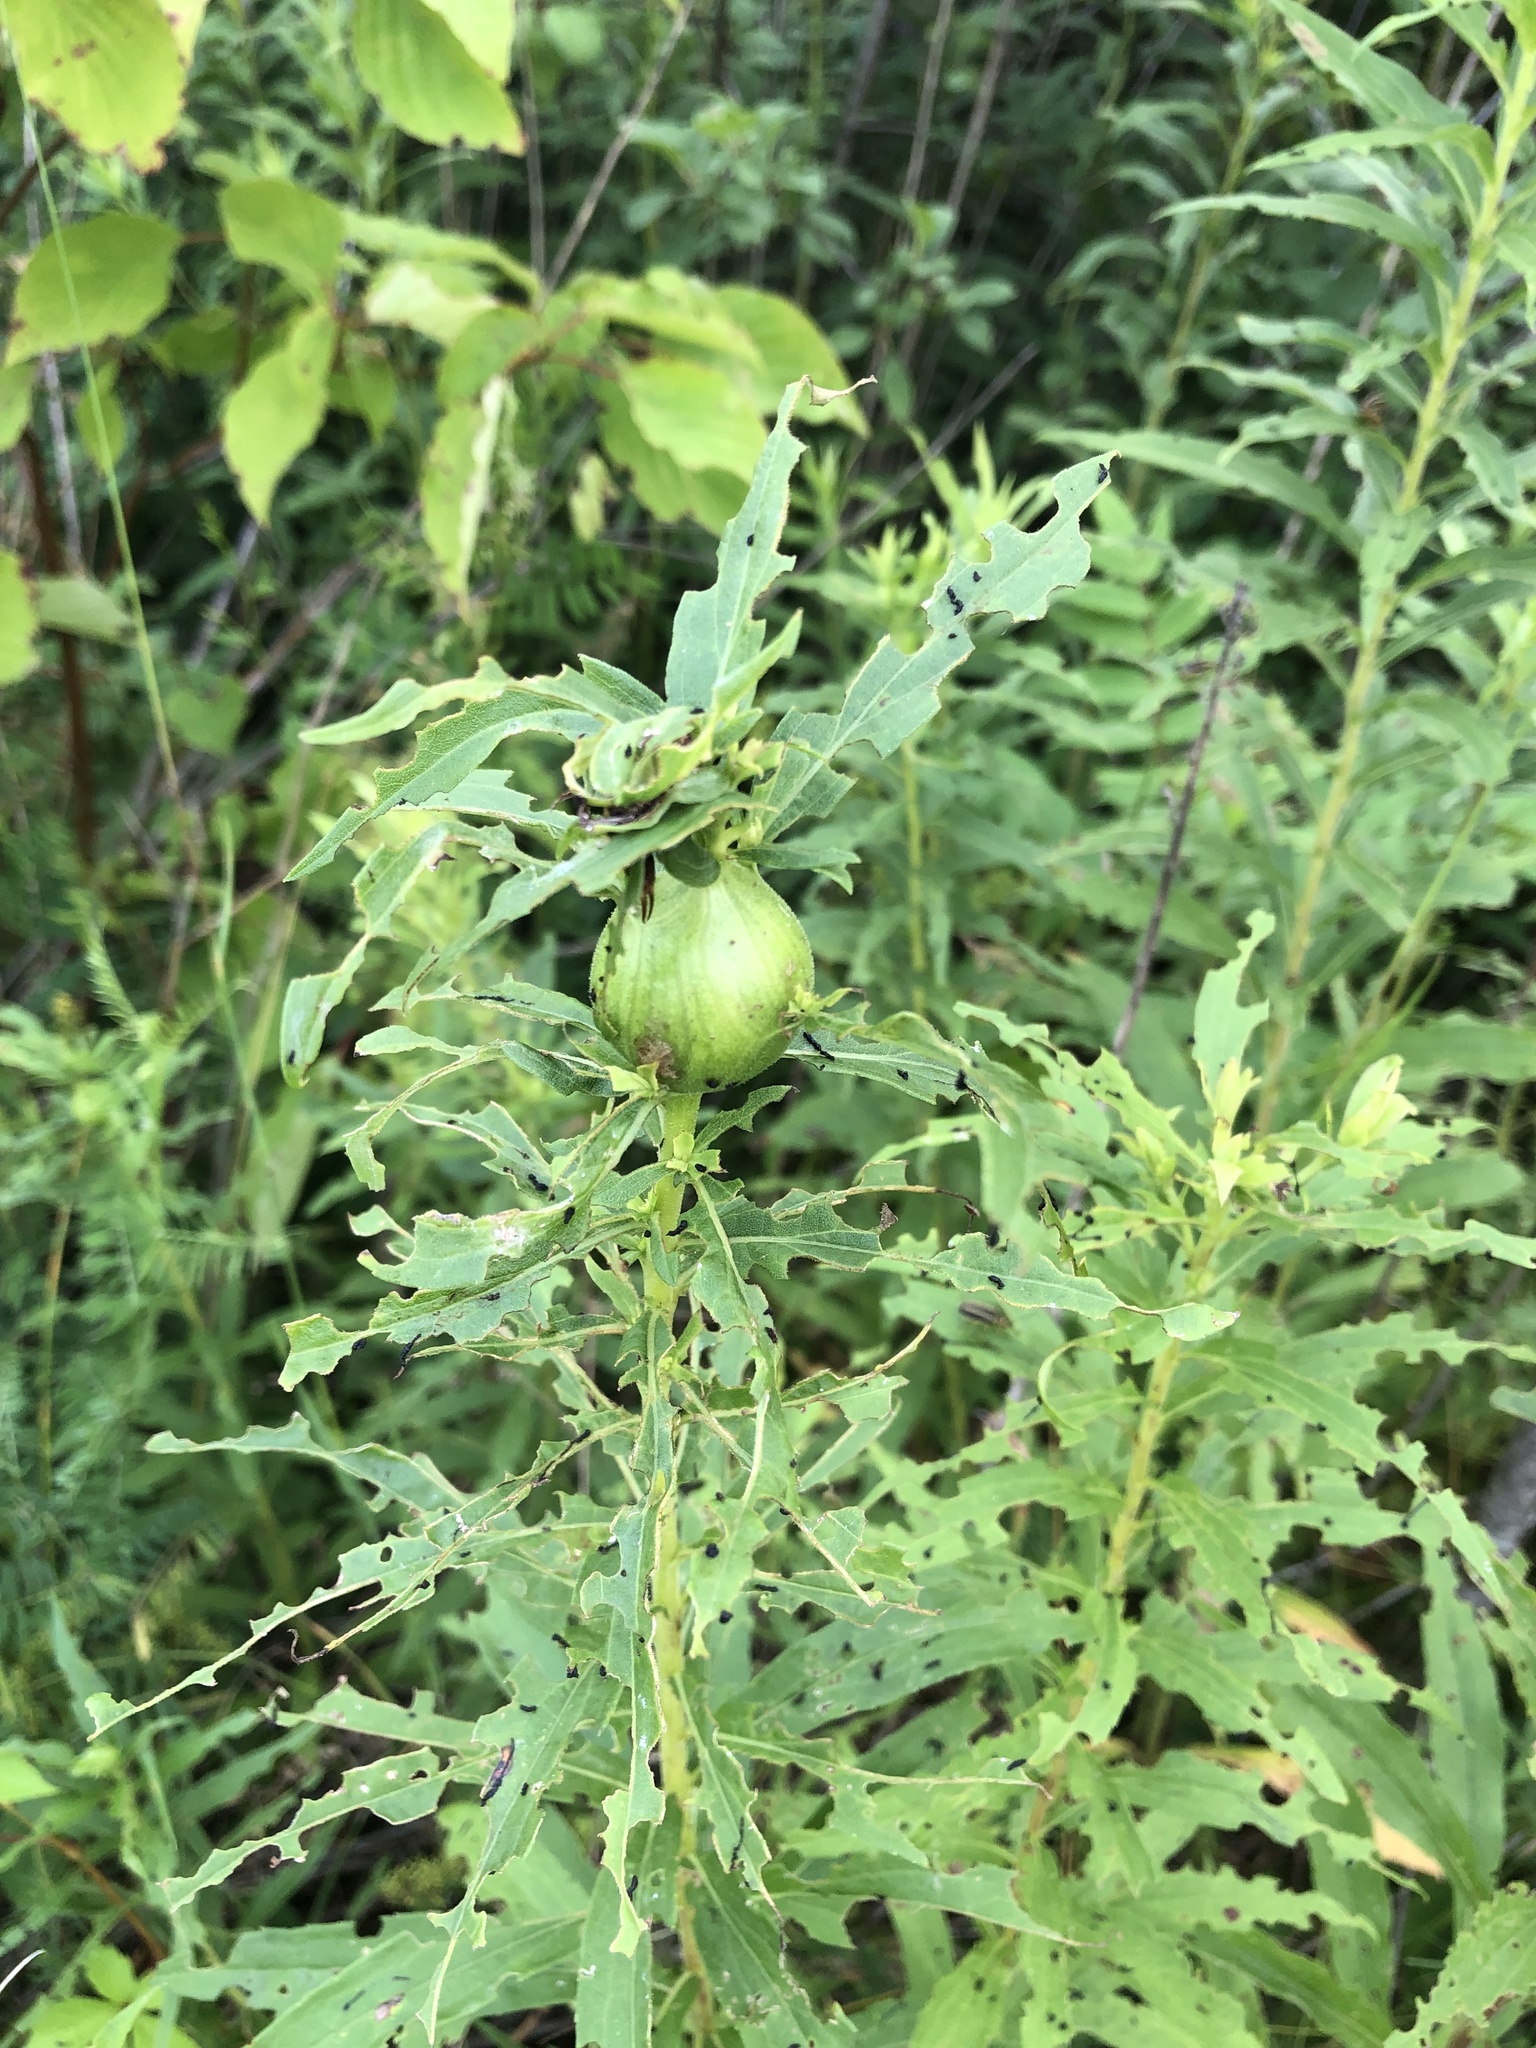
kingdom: Animalia
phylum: Arthropoda
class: Insecta
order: Diptera
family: Tephritidae
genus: Eurosta
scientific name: Eurosta solidaginis
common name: Goldenrod gall fly
